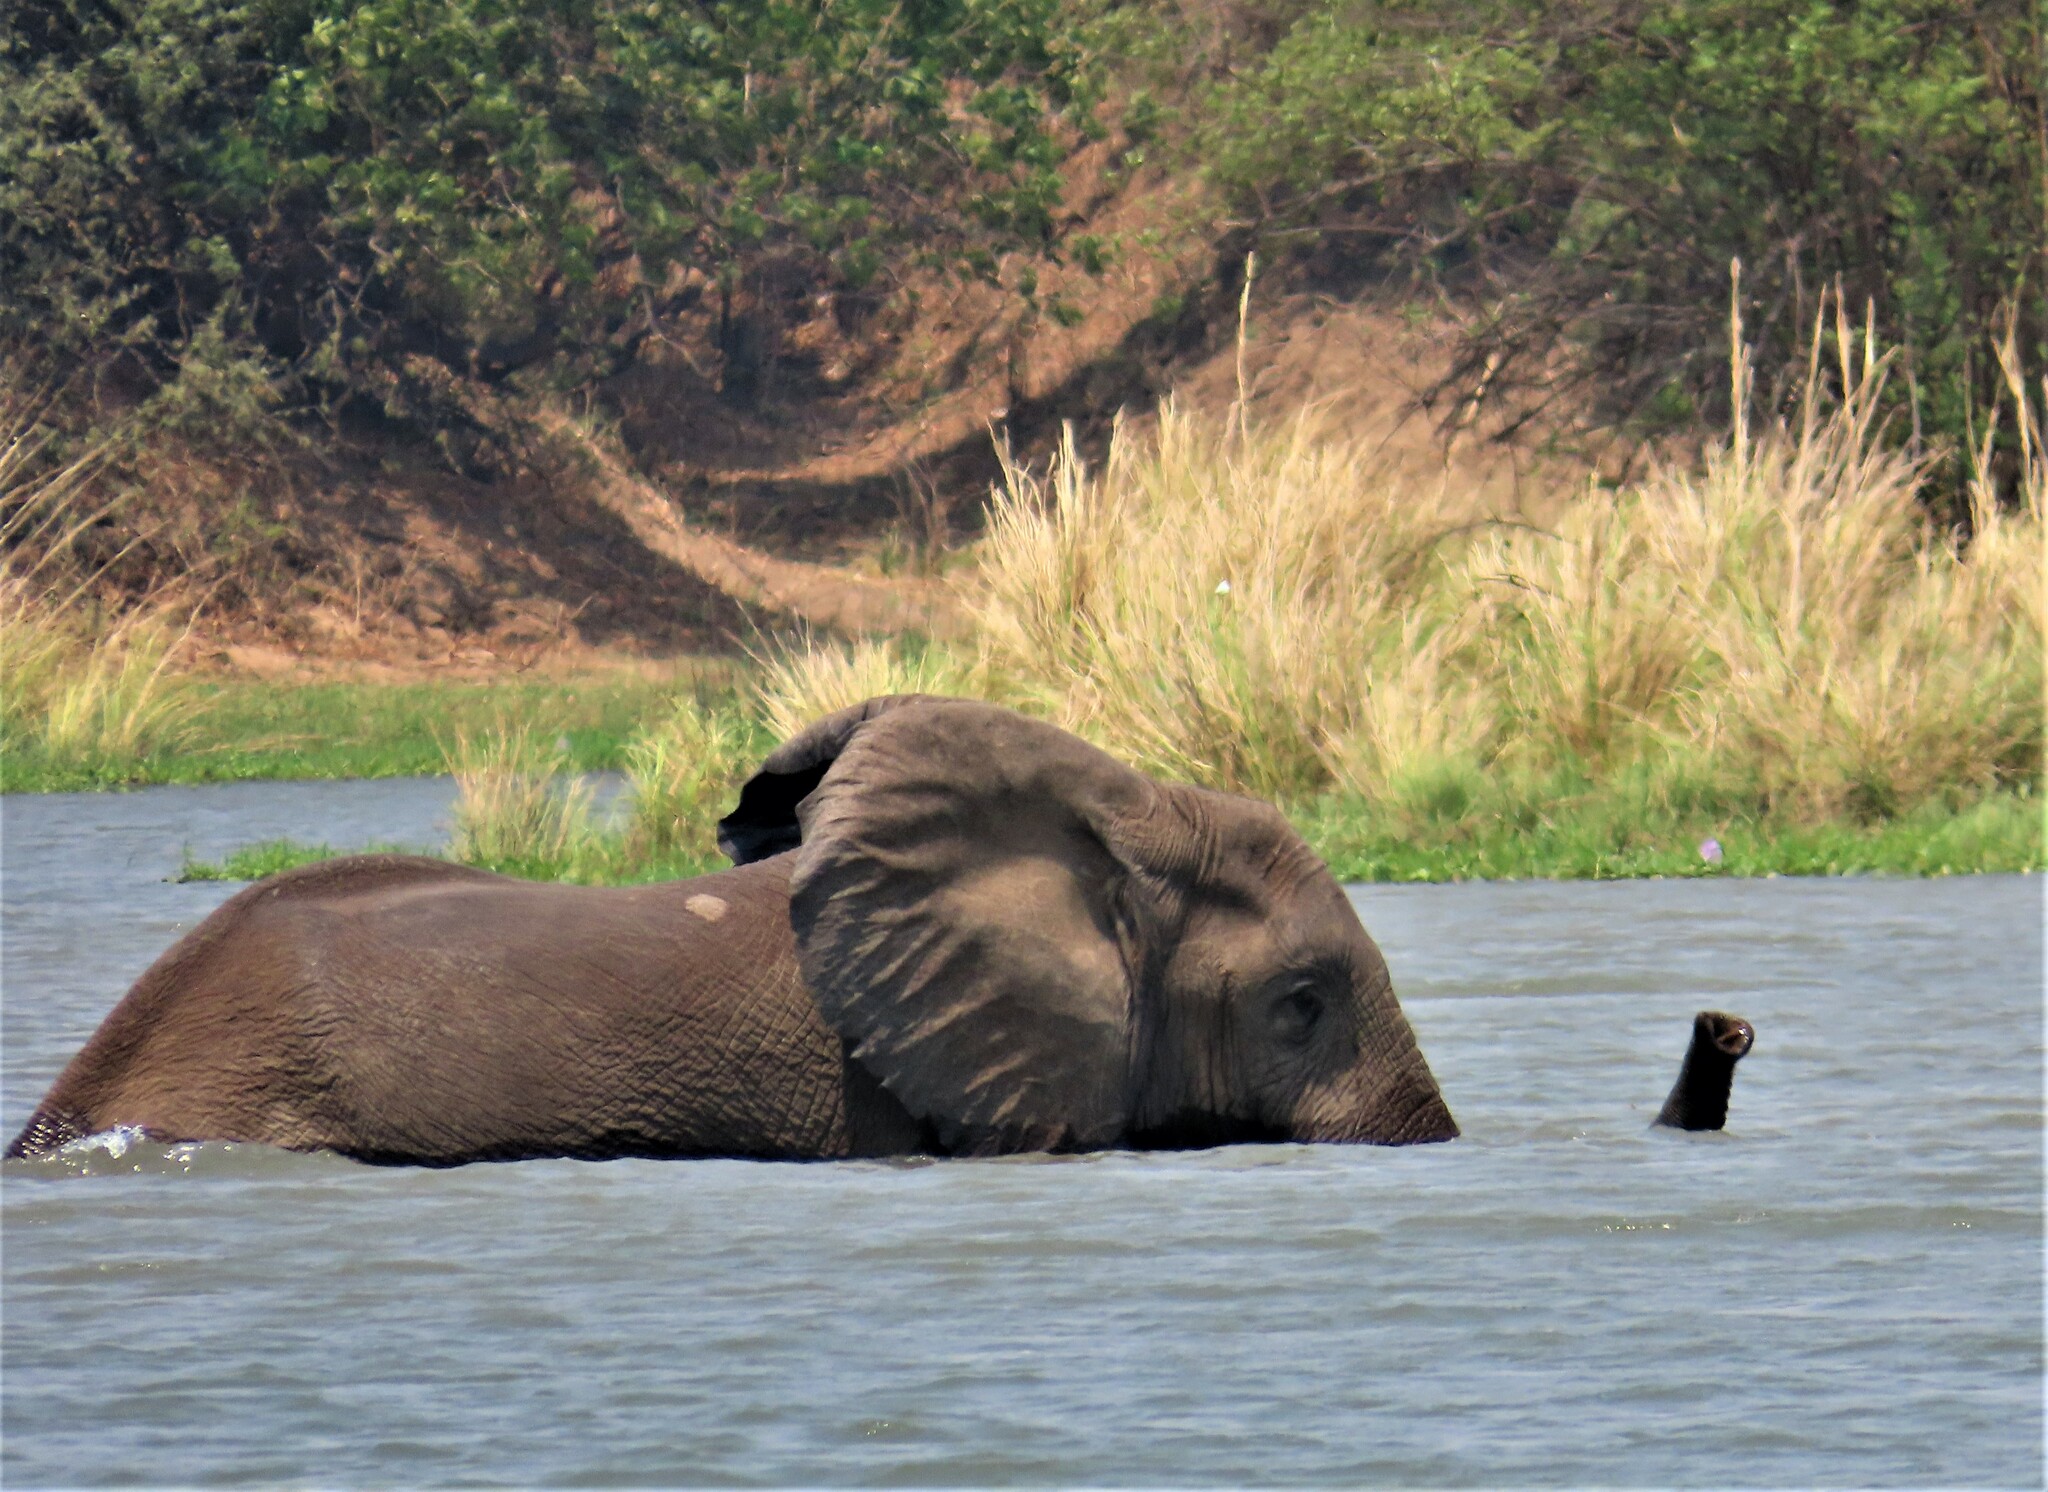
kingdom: Animalia
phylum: Chordata
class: Mammalia
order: Proboscidea
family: Elephantidae
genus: Loxodonta
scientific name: Loxodonta africana
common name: African elephant
